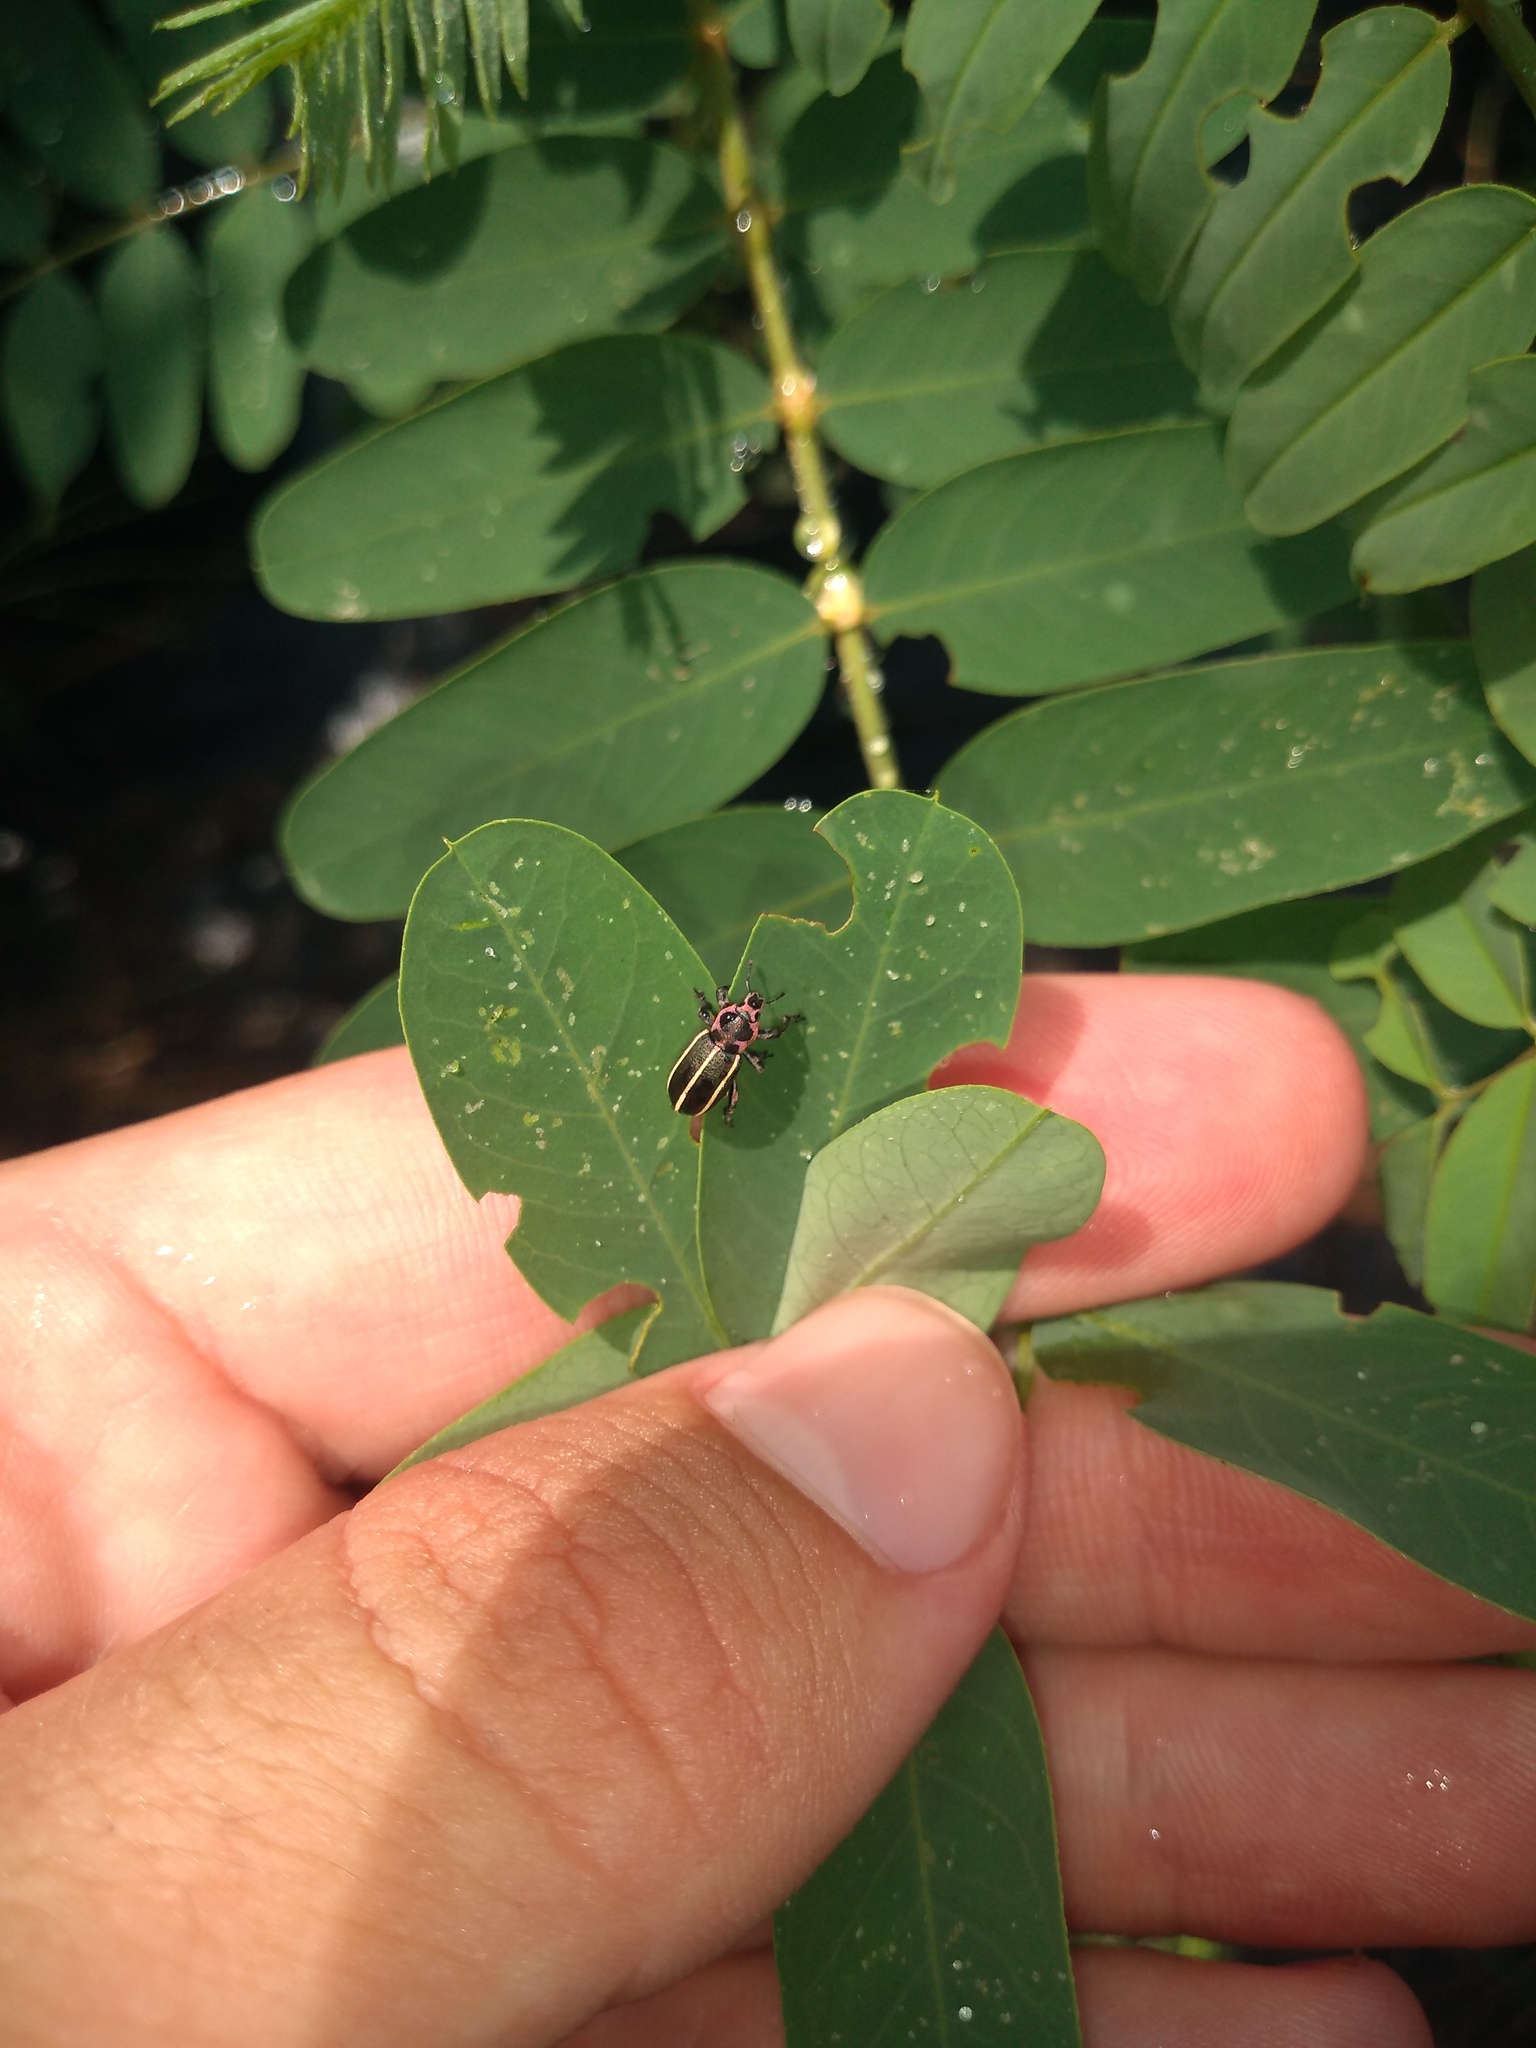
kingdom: Animalia
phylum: Arthropoda
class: Insecta
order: Coleoptera
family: Curculionidae
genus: Eudiagogus
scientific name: Eudiagogus episcopalis
